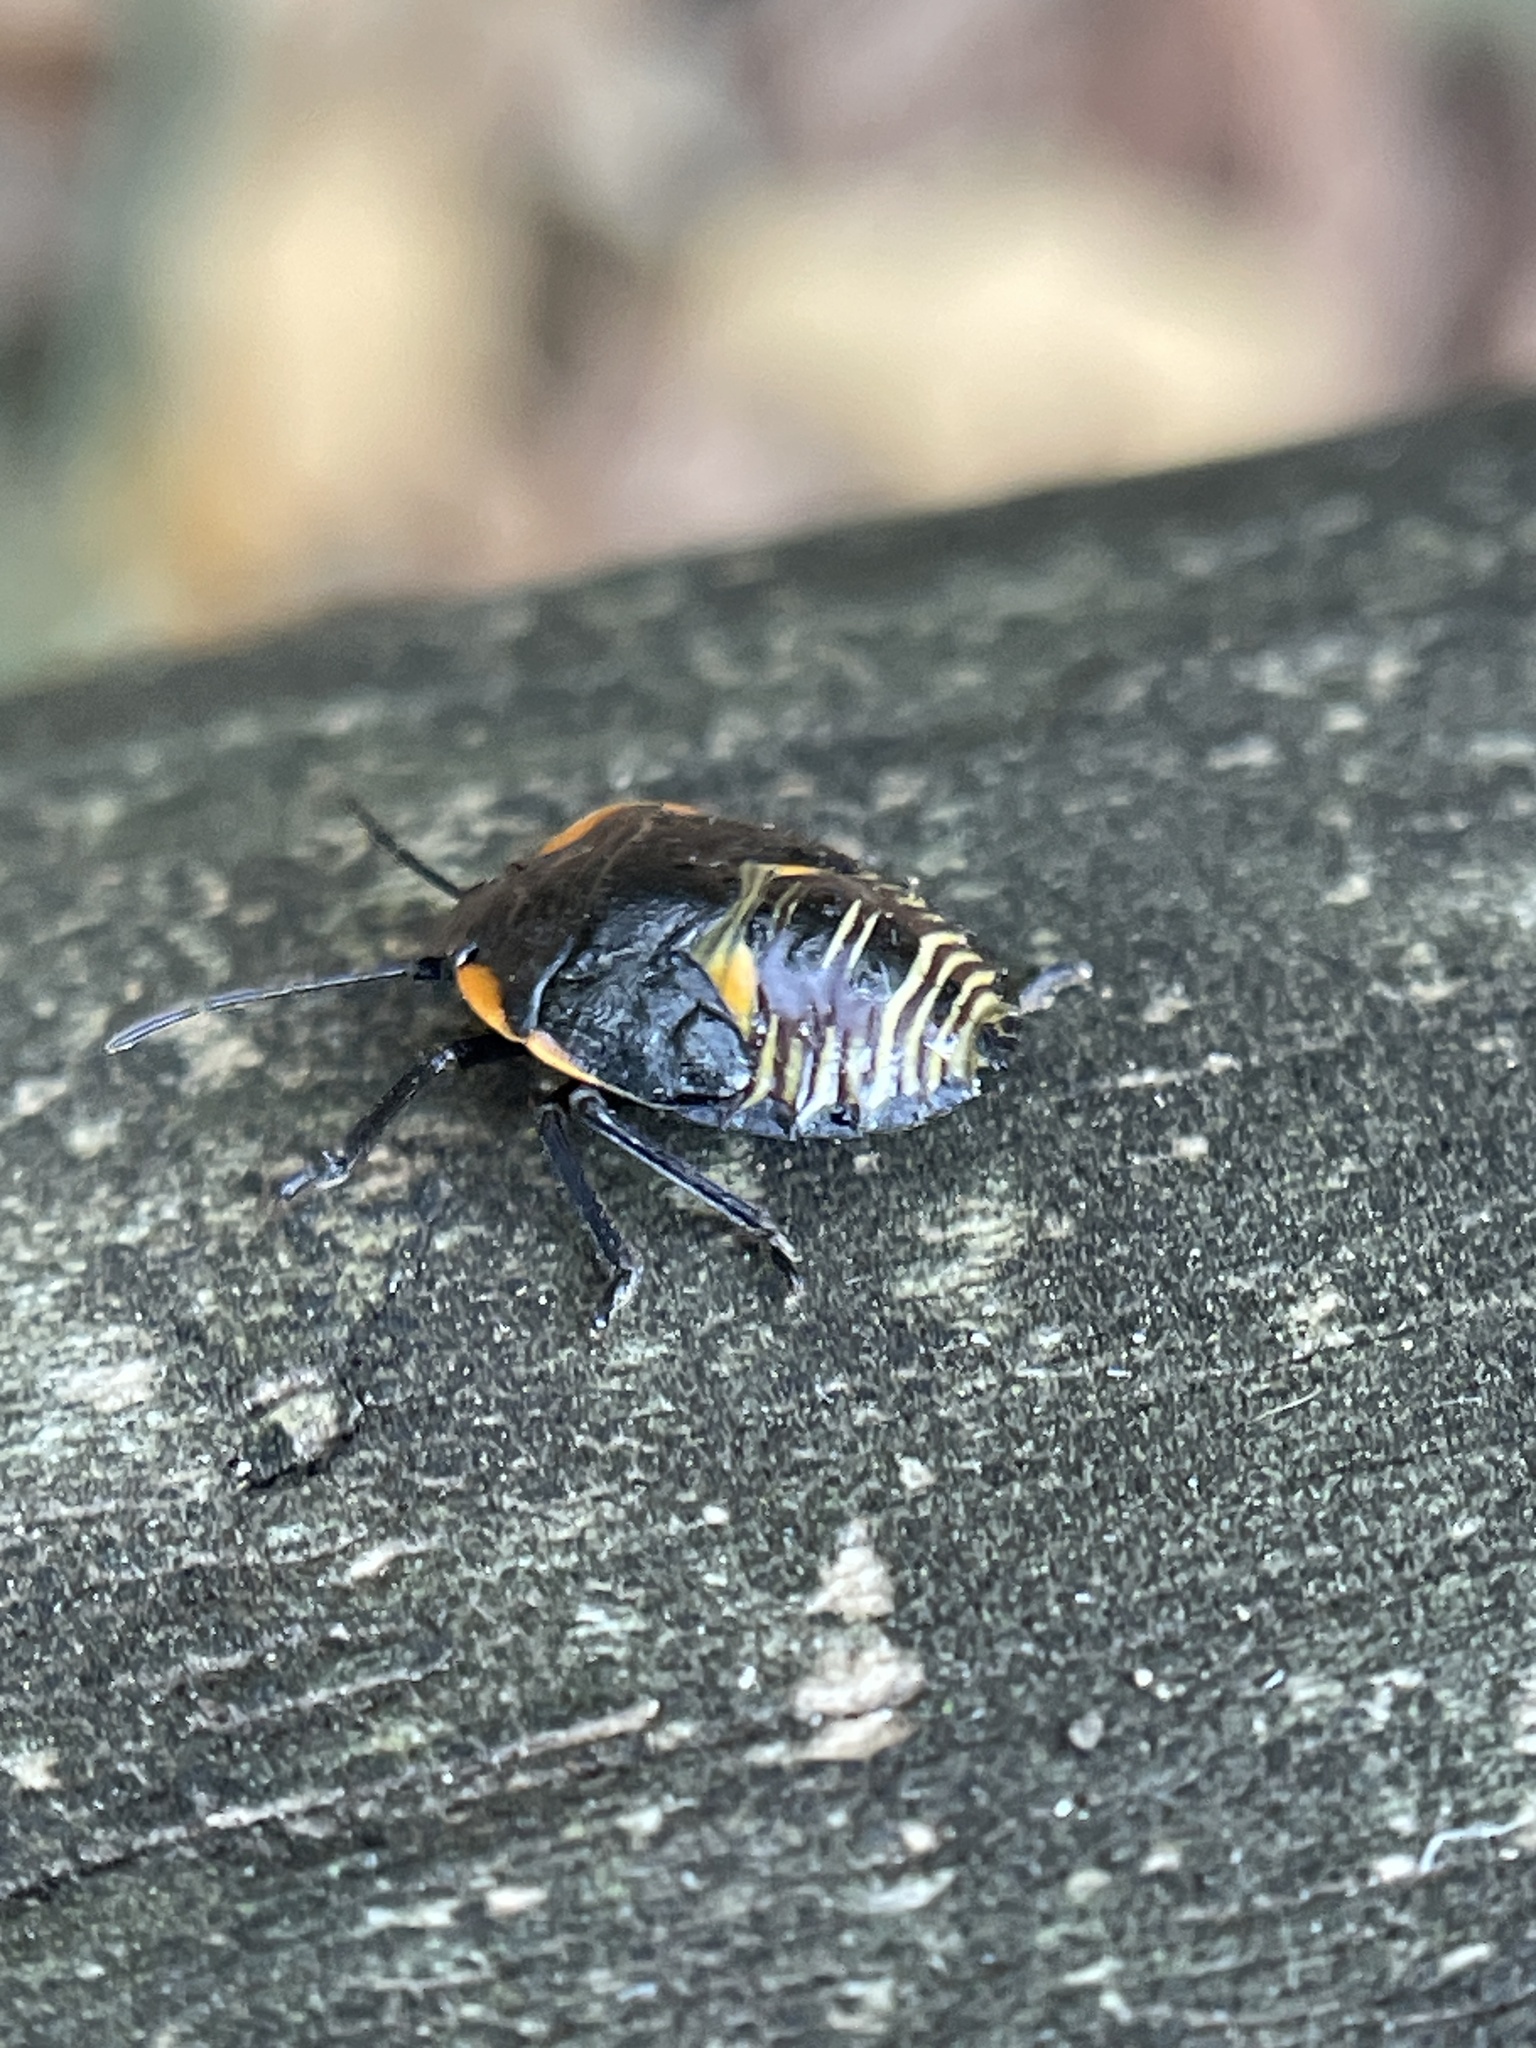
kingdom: Animalia
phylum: Arthropoda
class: Insecta
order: Hemiptera
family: Pentatomidae
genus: Chinavia
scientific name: Chinavia hilaris
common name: Green stink bug
